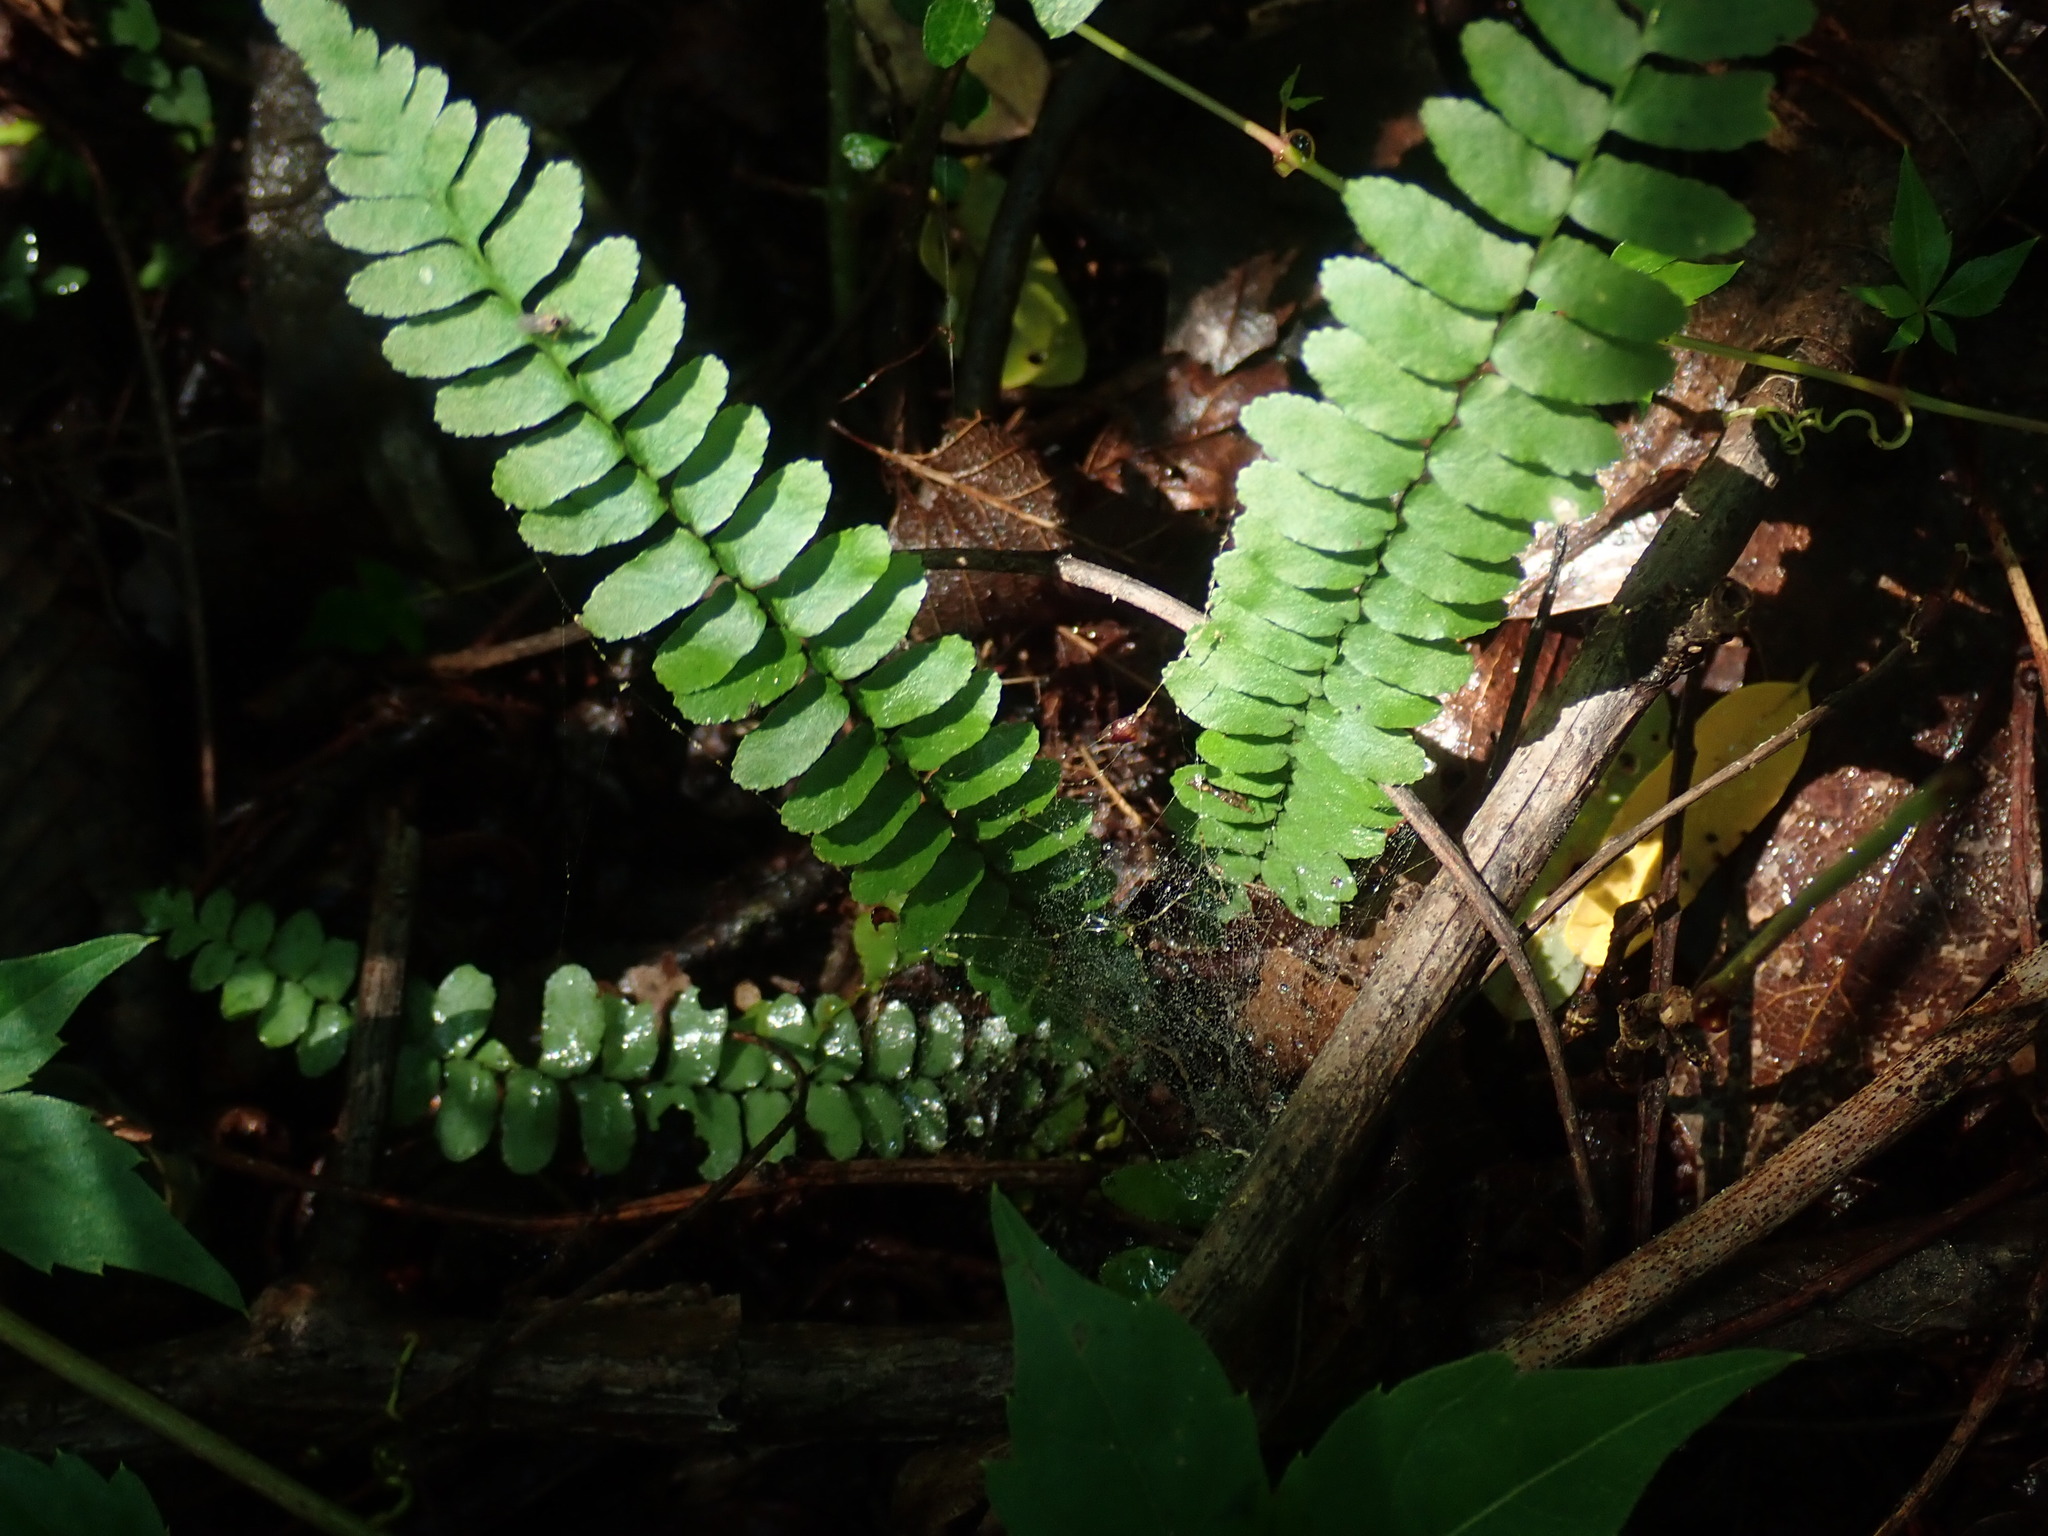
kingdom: Plantae
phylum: Tracheophyta
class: Polypodiopsida
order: Polypodiales
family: Aspleniaceae
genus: Asplenium
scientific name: Asplenium platyneuron
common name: Ebony spleenwort
